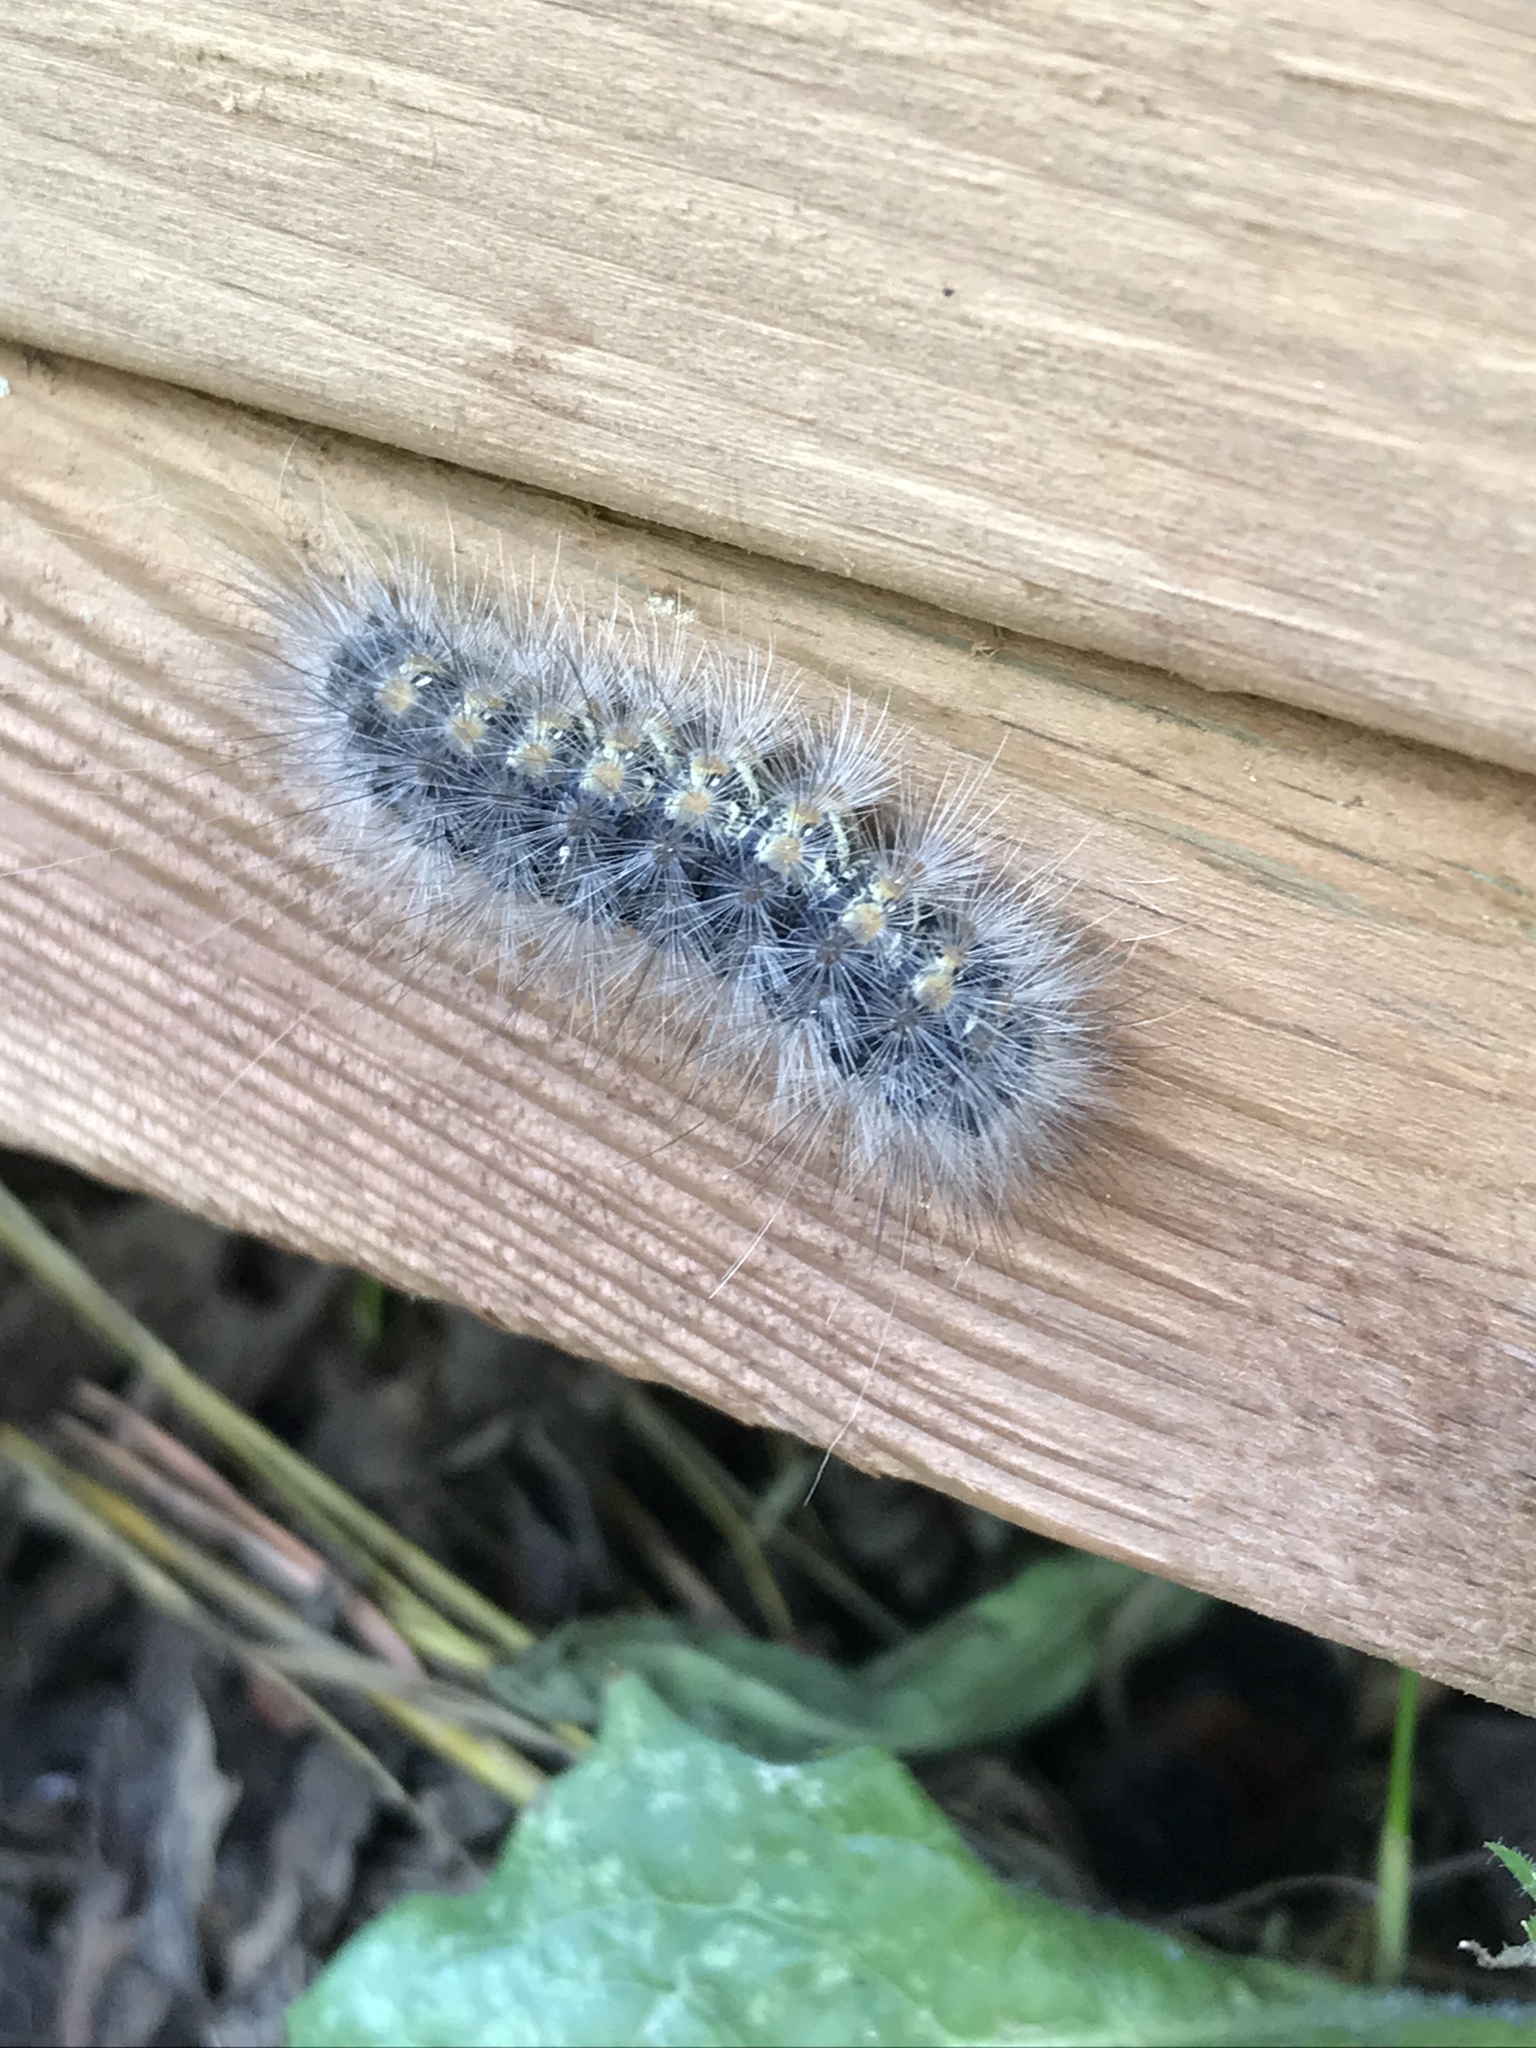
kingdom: Animalia
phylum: Arthropoda
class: Insecta
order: Lepidoptera
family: Erebidae
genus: Estigmene
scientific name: Estigmene acrea
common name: Salt marsh moth
